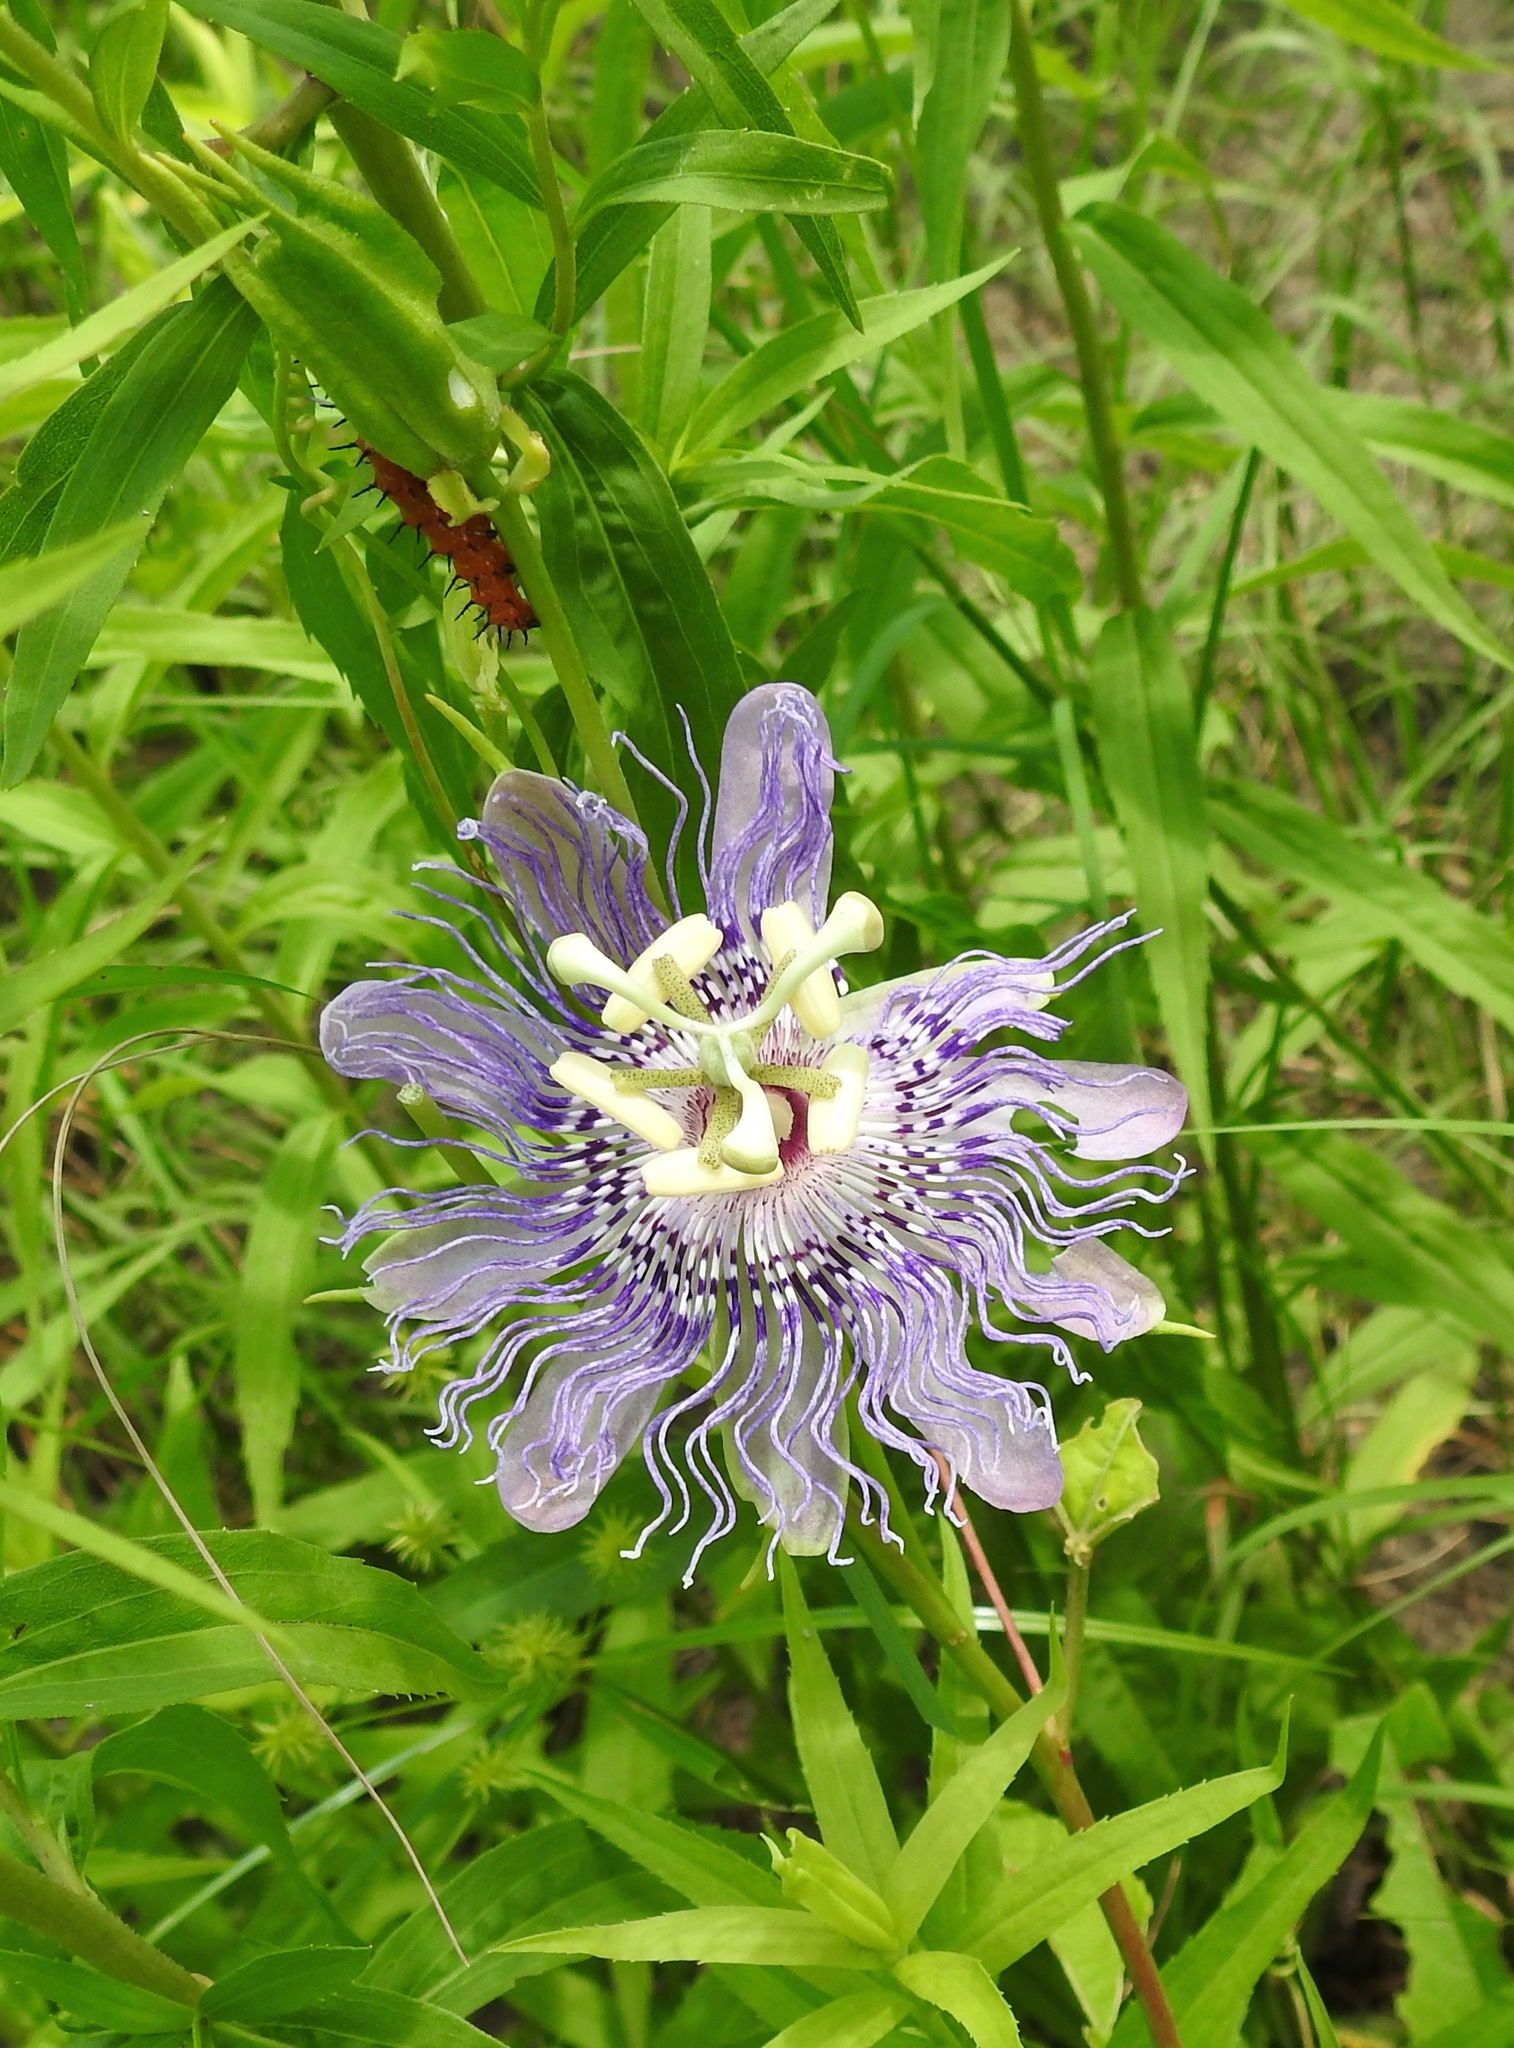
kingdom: Plantae
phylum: Tracheophyta
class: Magnoliopsida
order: Malpighiales
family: Passifloraceae
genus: Passiflora
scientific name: Passiflora incarnata
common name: Apricot-vine
